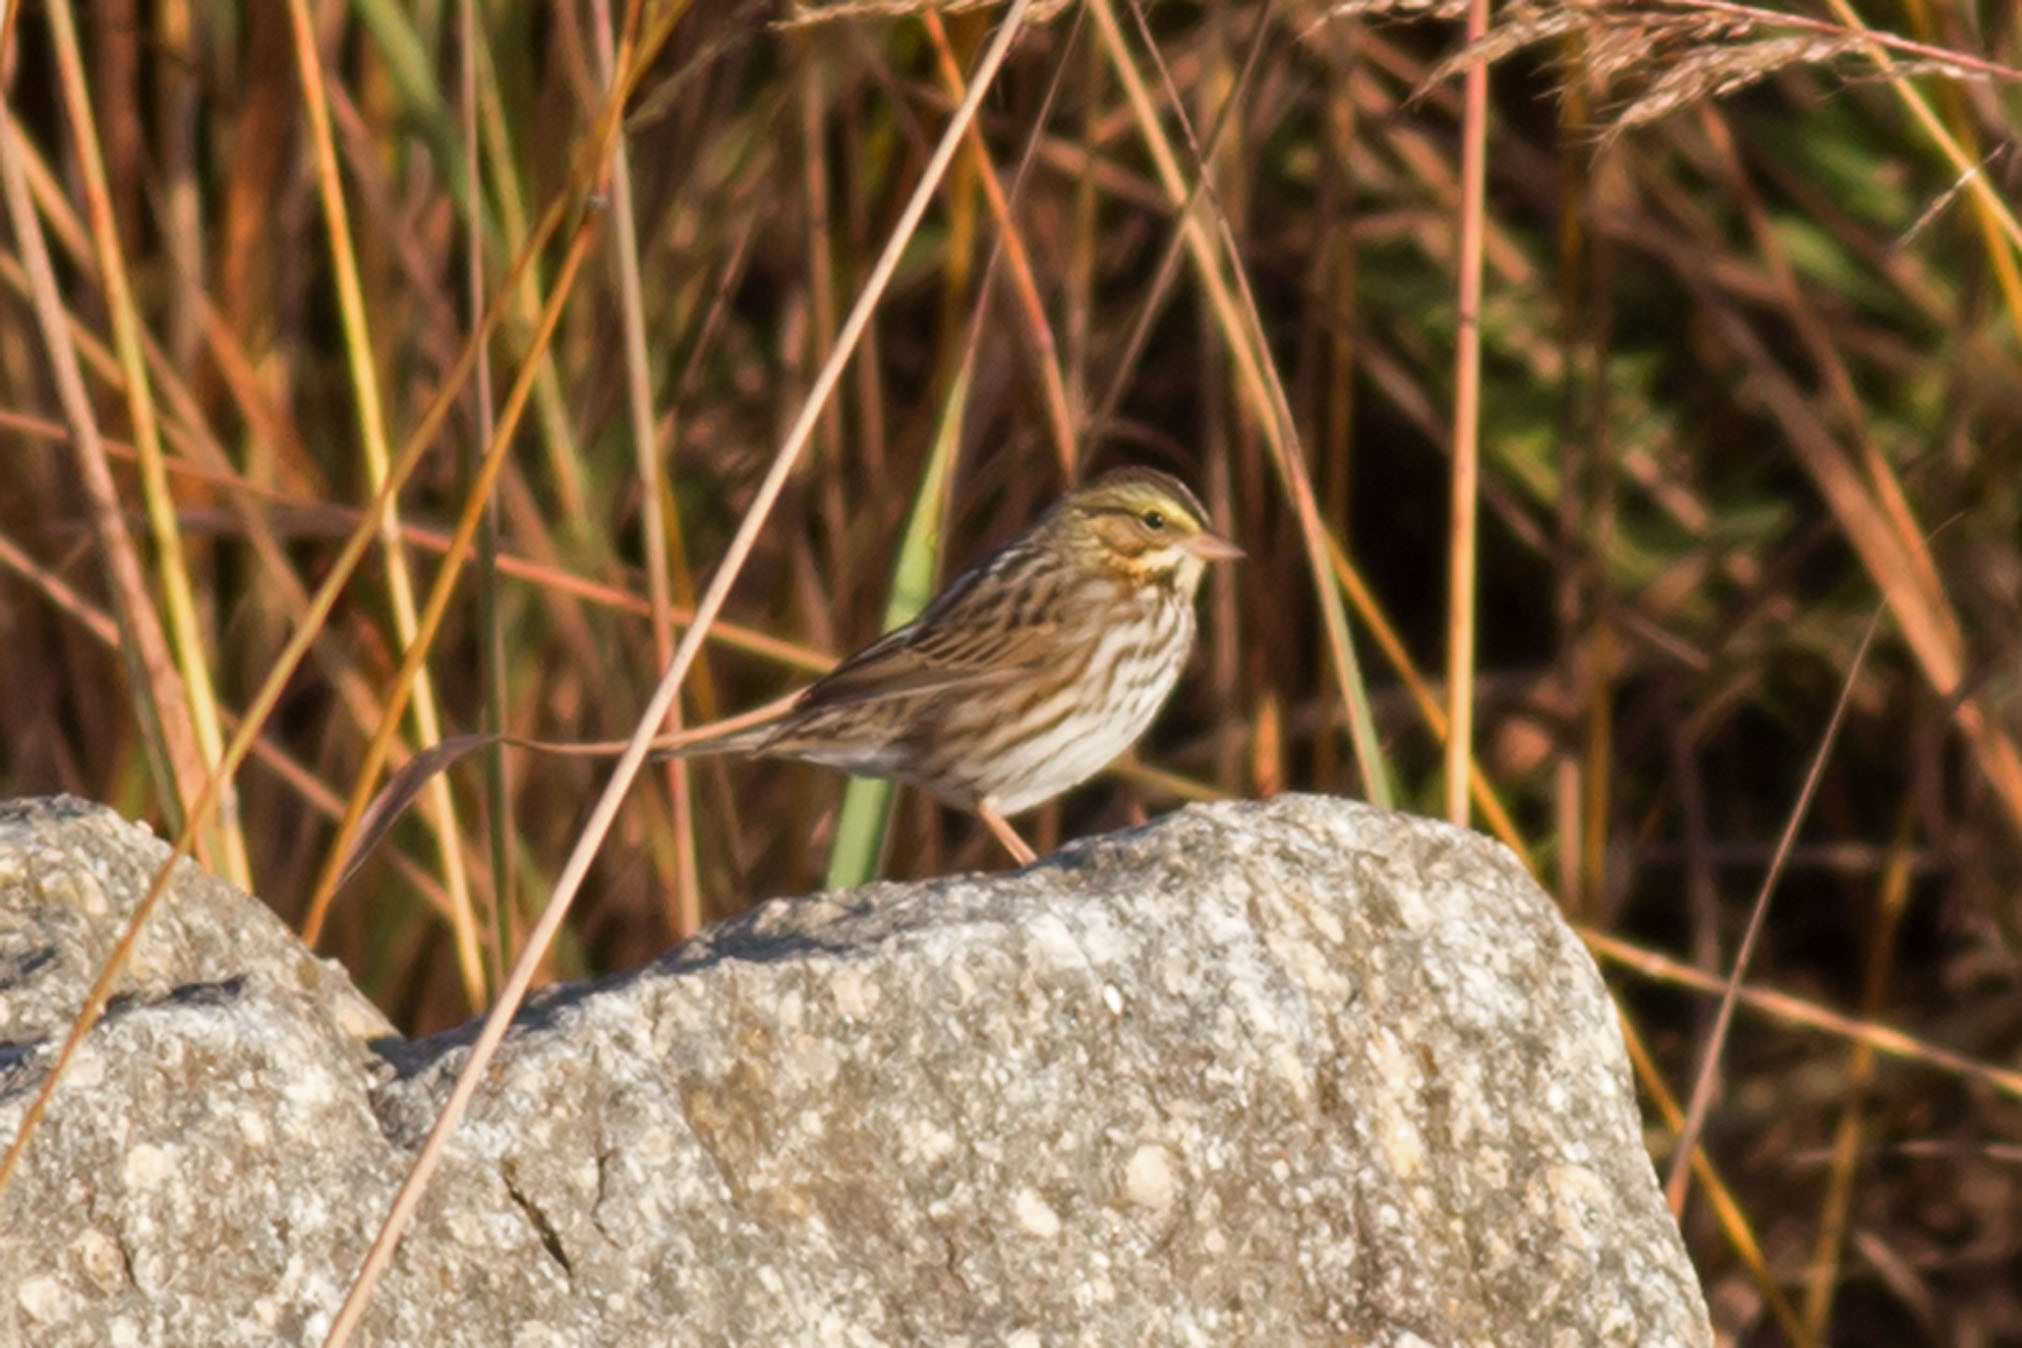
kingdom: Animalia
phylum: Chordata
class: Aves
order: Passeriformes
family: Passerellidae
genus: Passerculus
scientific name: Passerculus sandwichensis
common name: Savannah sparrow
